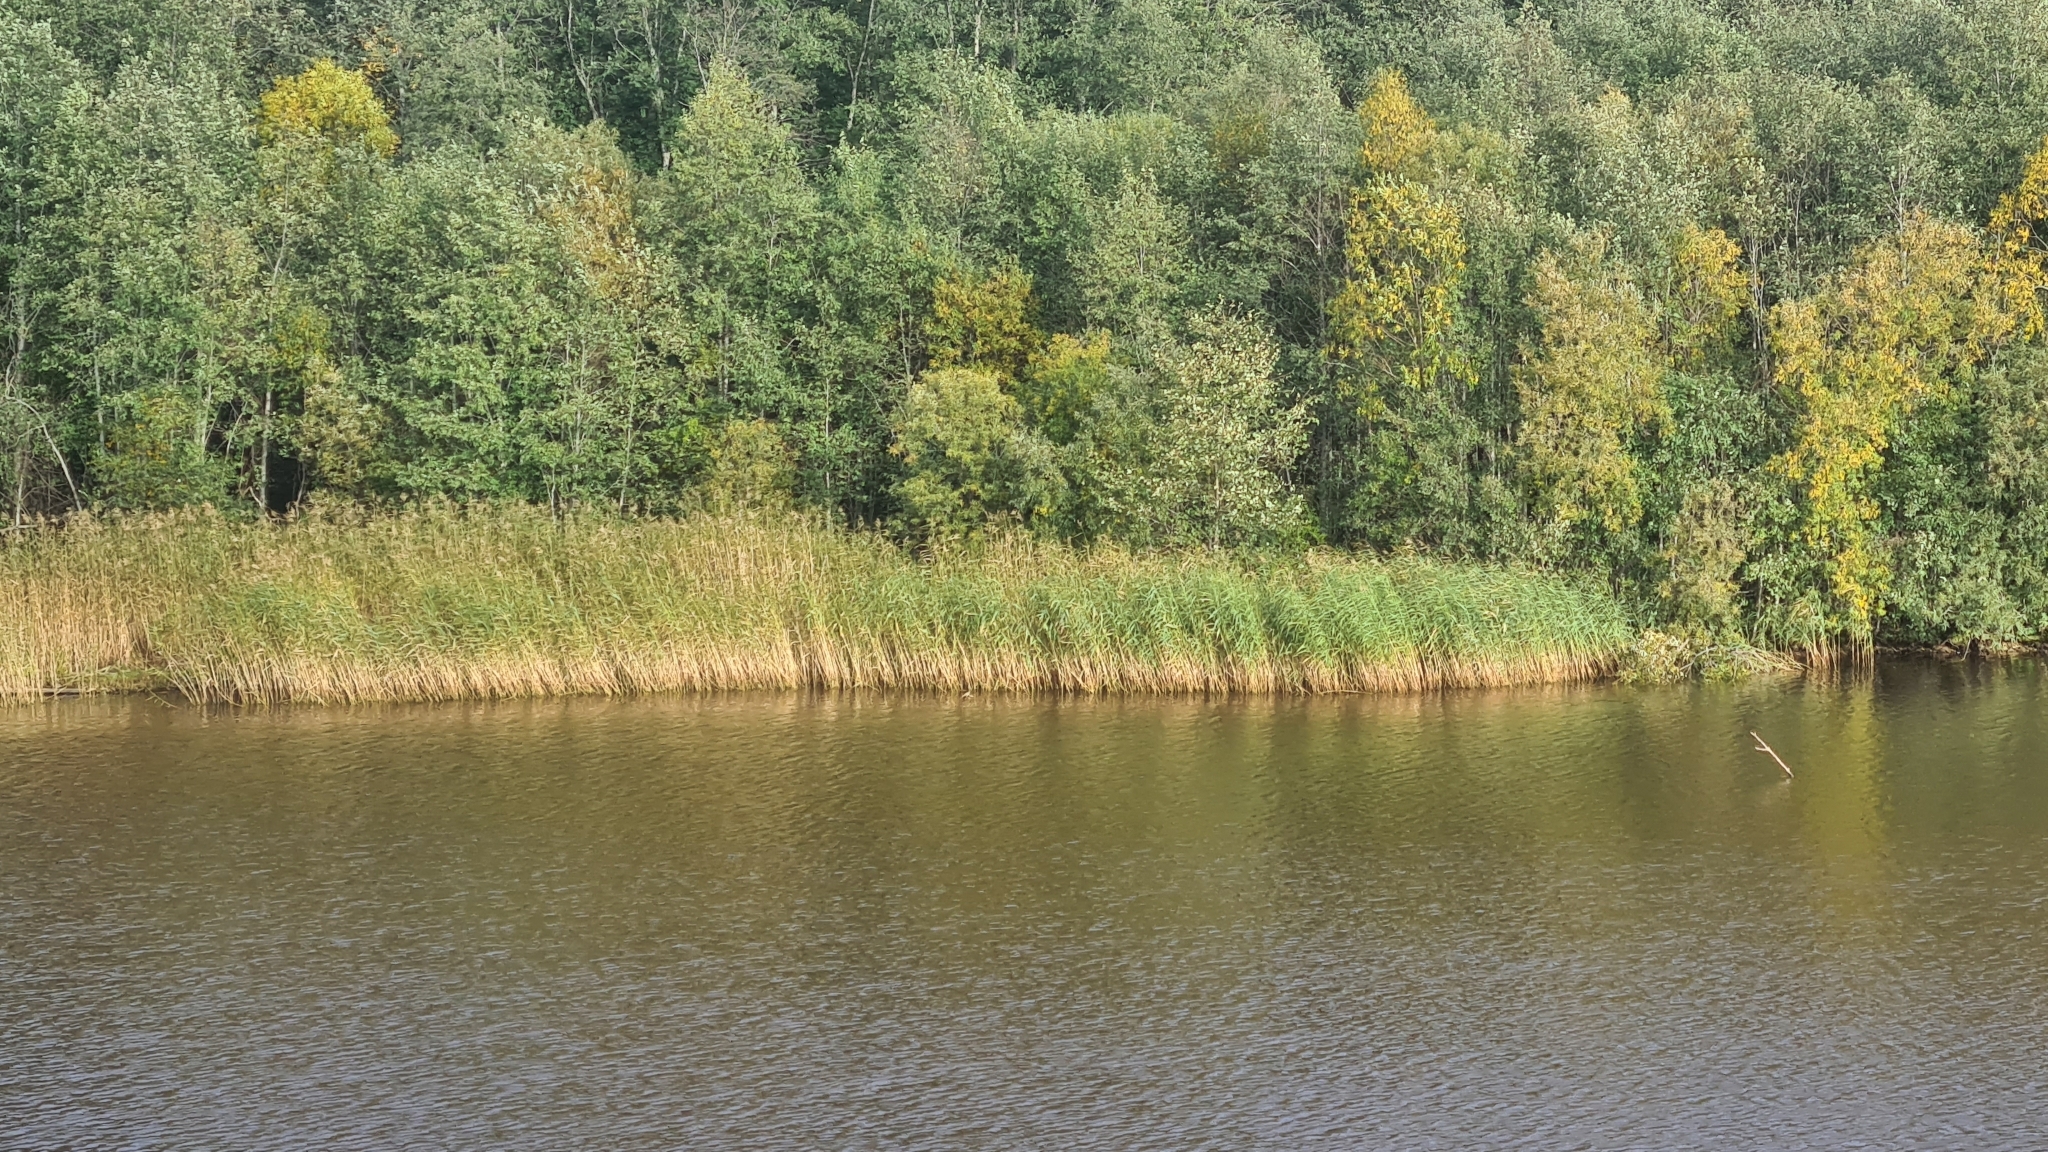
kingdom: Plantae
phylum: Tracheophyta
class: Liliopsida
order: Poales
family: Poaceae
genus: Phragmites
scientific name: Phragmites australis
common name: Common reed
